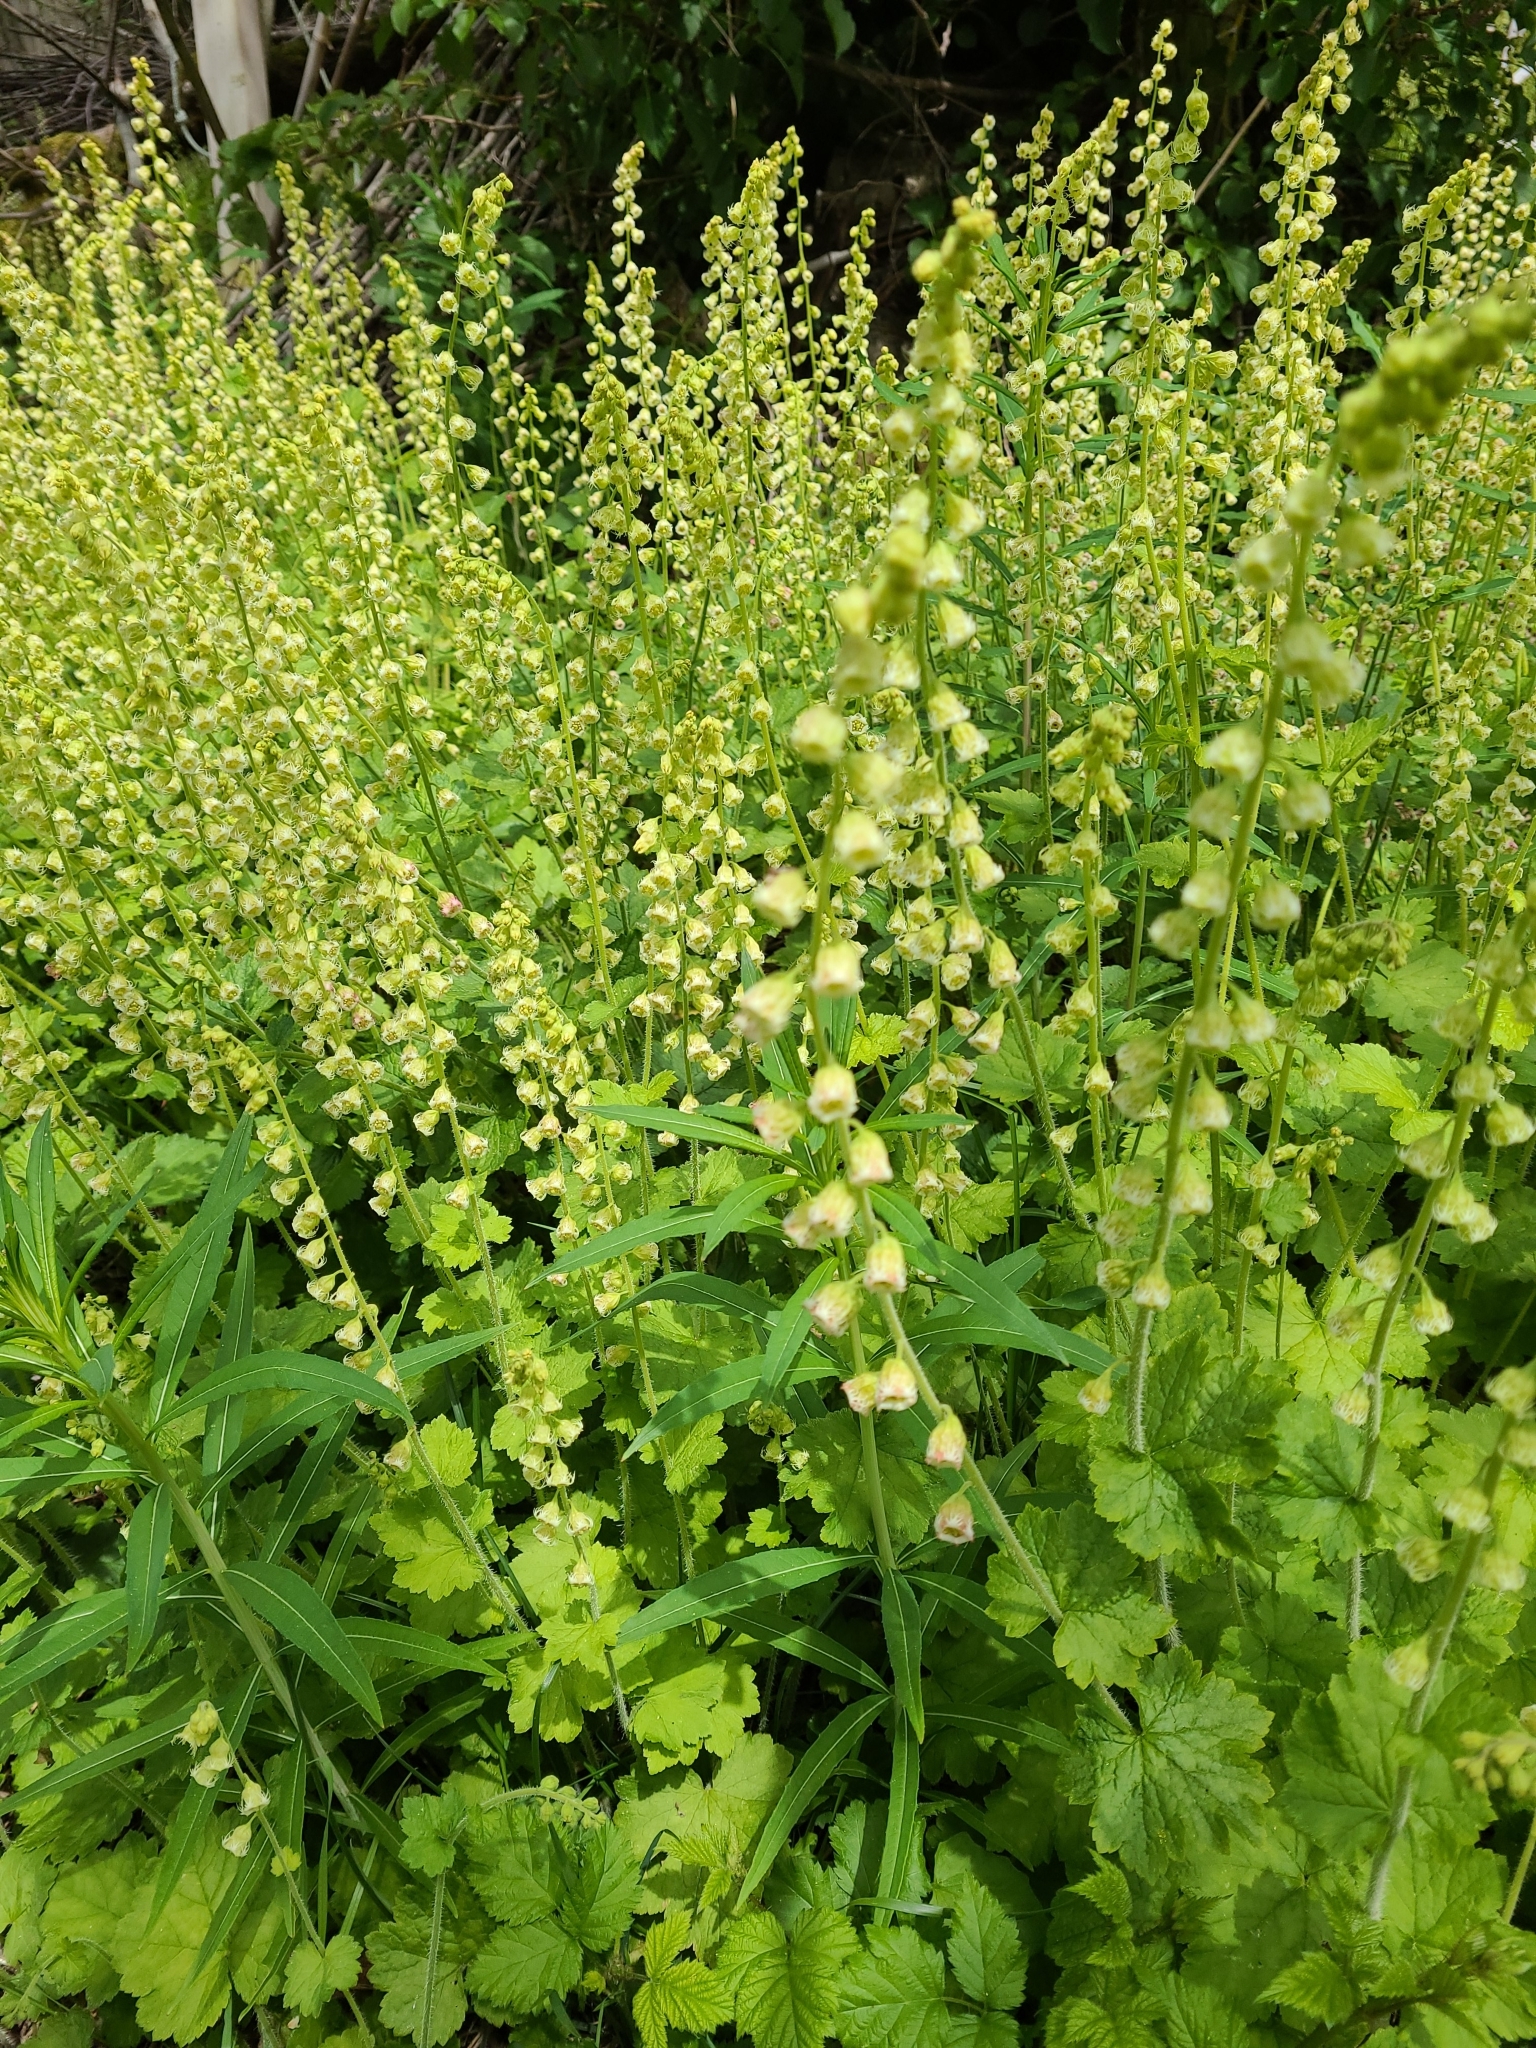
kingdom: Plantae
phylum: Tracheophyta
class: Magnoliopsida
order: Saxifragales
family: Saxifragaceae
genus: Tellima
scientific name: Tellima grandiflora
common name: Fringecups
